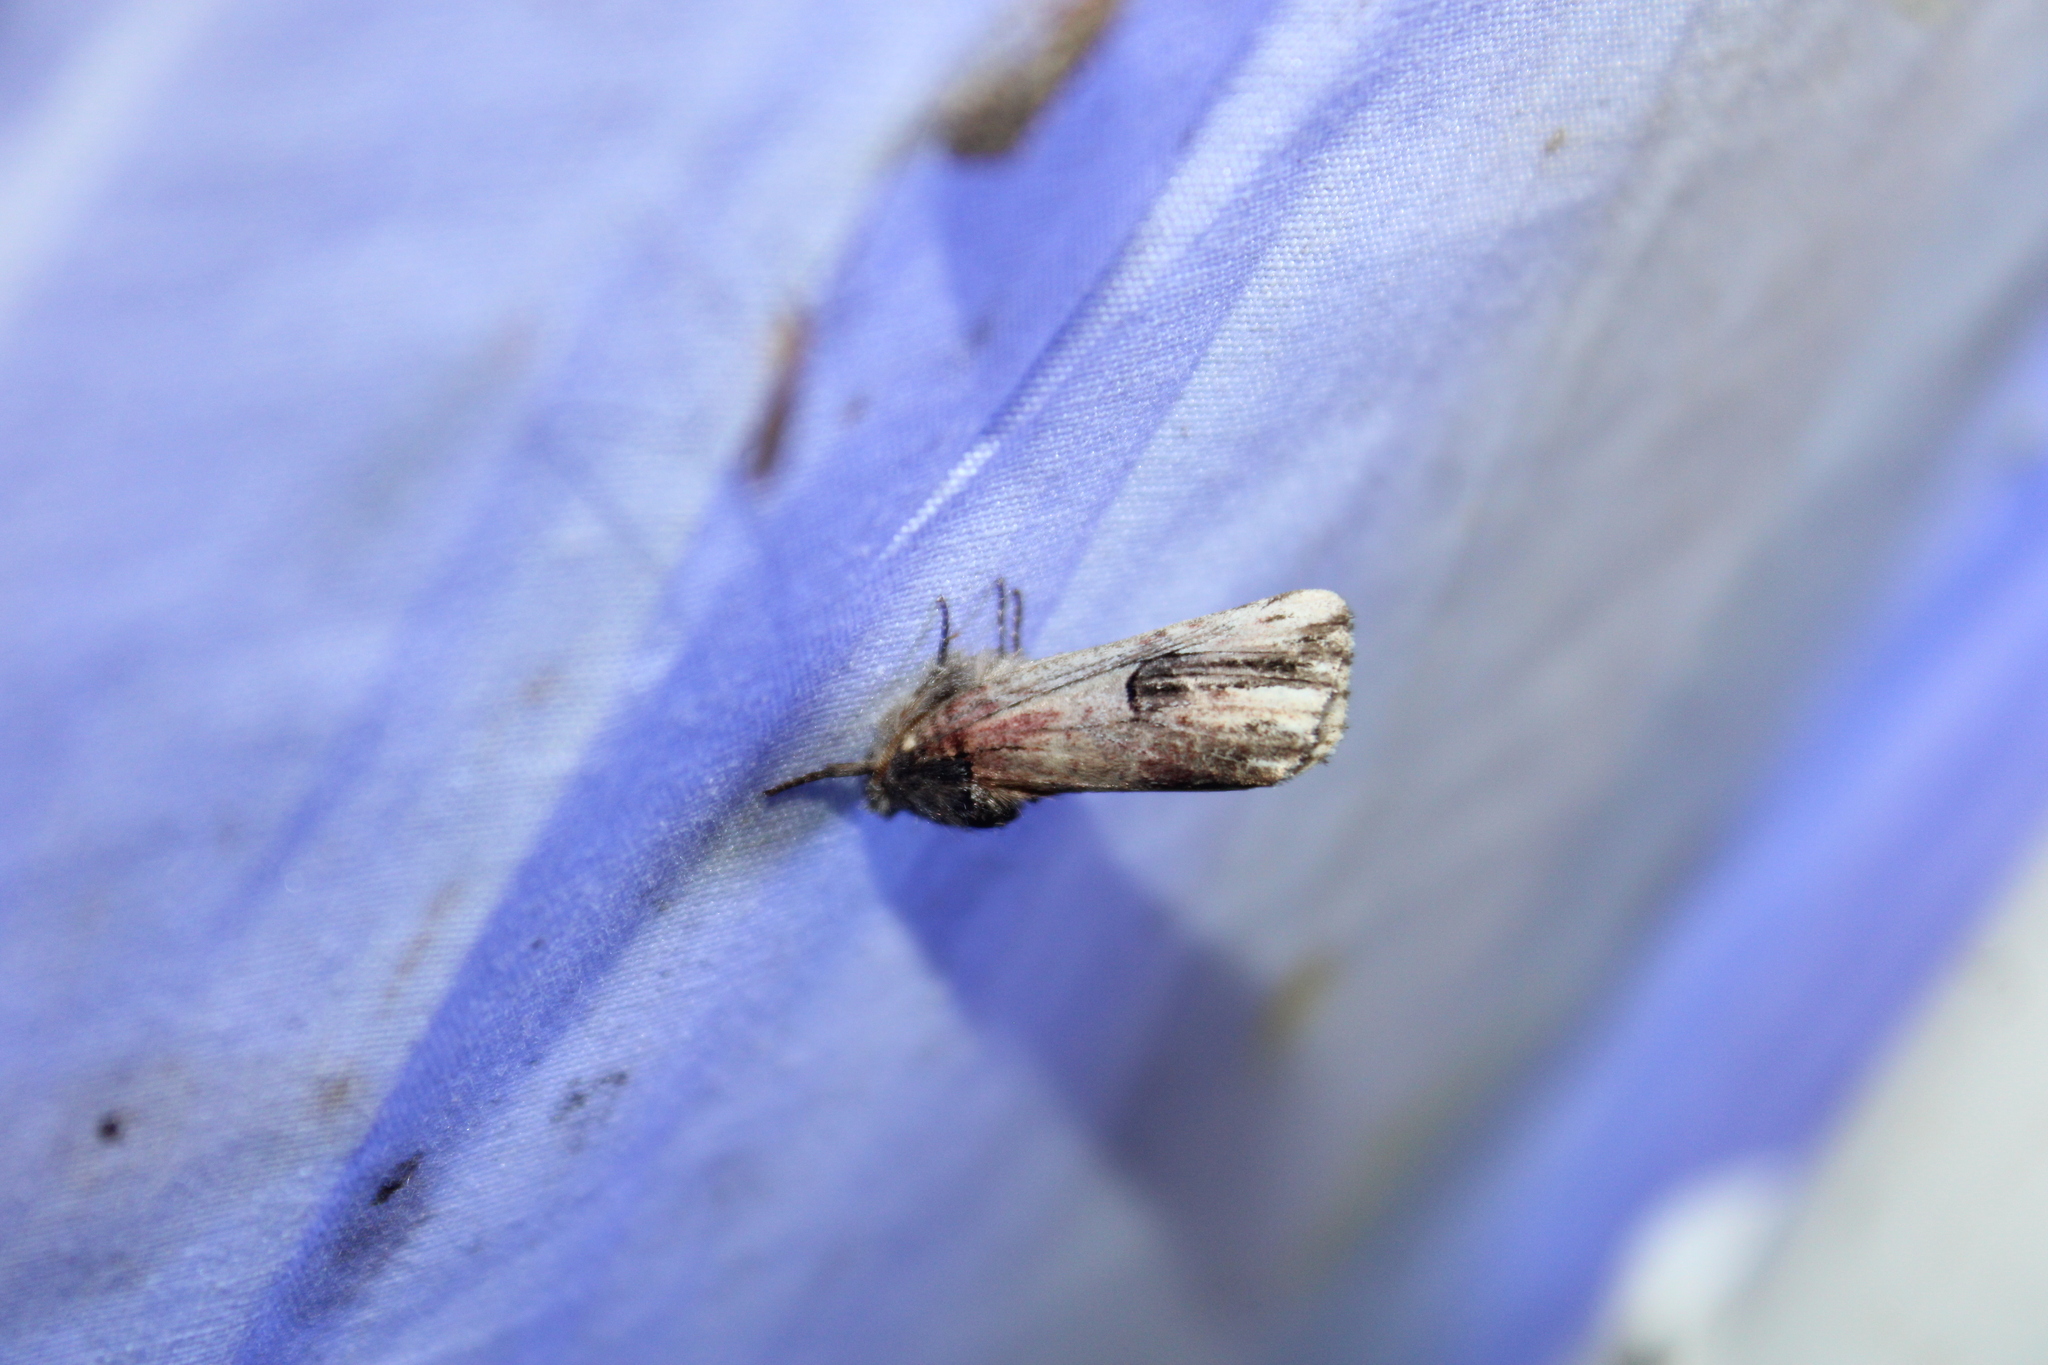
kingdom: Animalia
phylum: Arthropoda
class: Insecta
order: Lepidoptera
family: Notodontidae
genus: Schizura
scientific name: Schizura badia
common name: Chestnut schizura
